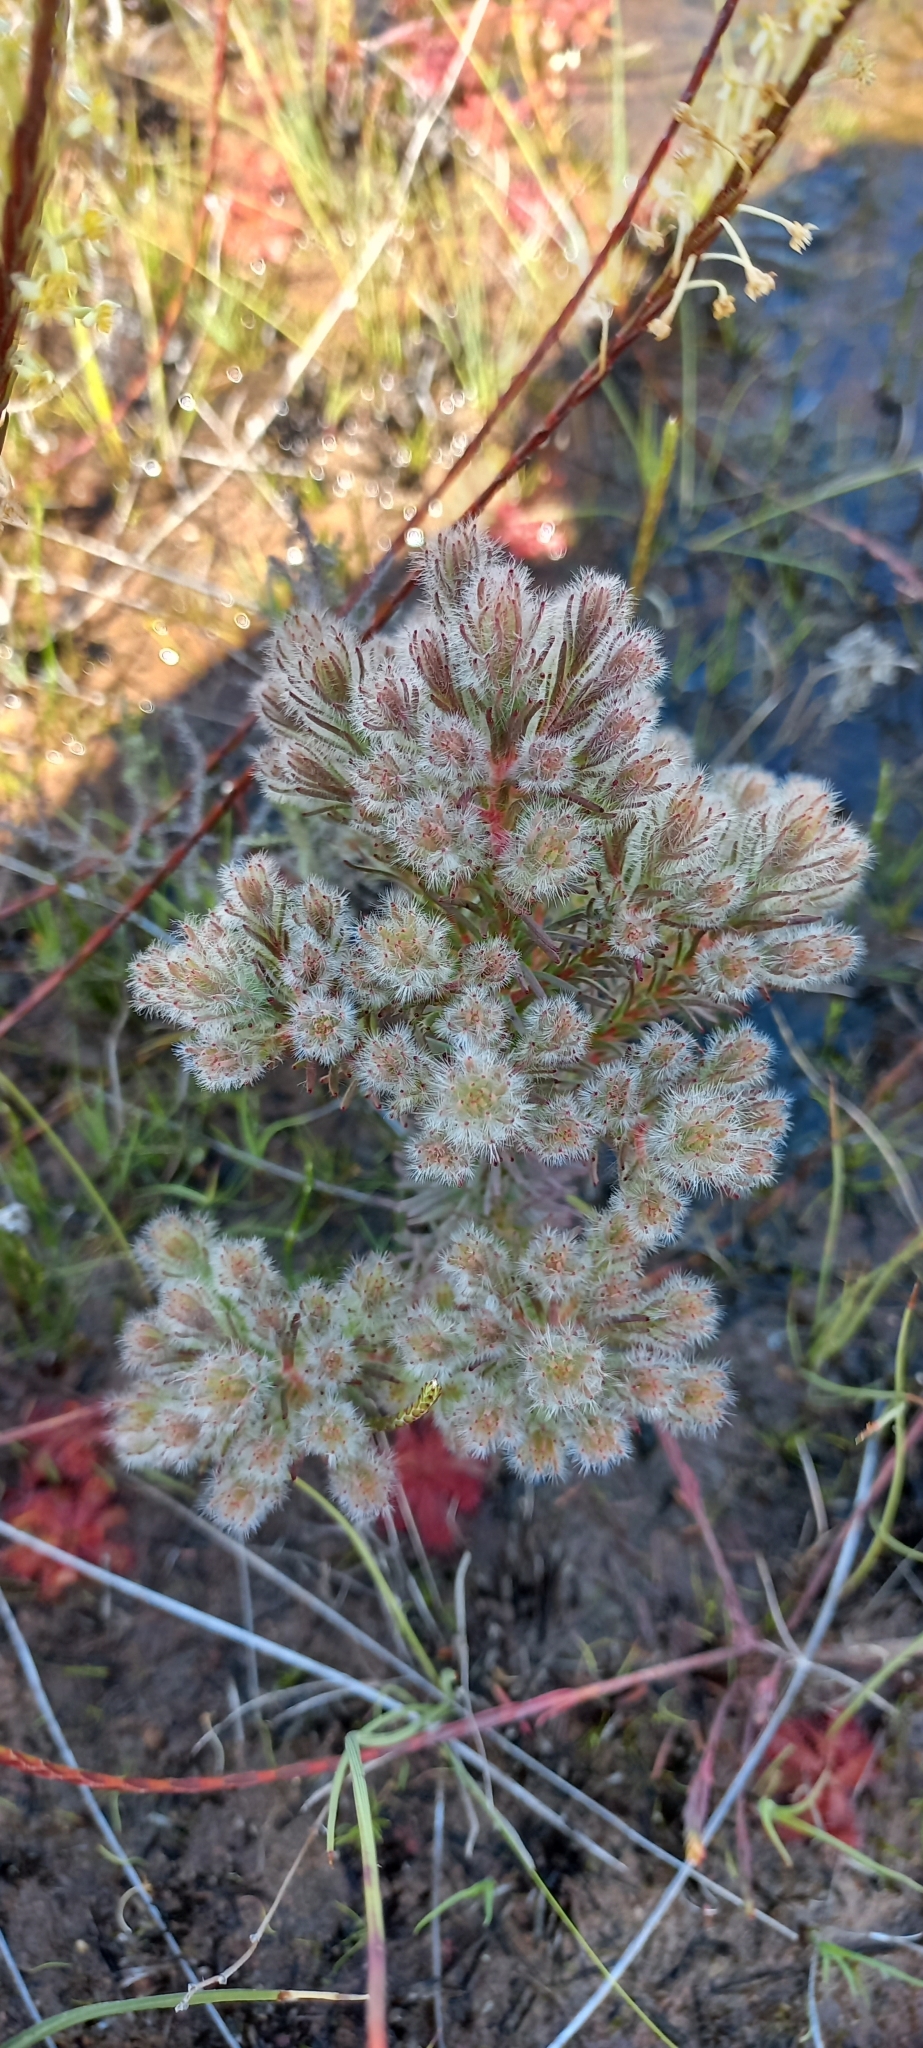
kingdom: Plantae
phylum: Tracheophyta
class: Magnoliopsida
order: Proteales
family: Proteaceae
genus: Leucadendron
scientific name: Leucadendron corymbosum
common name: Swartveld conebush
